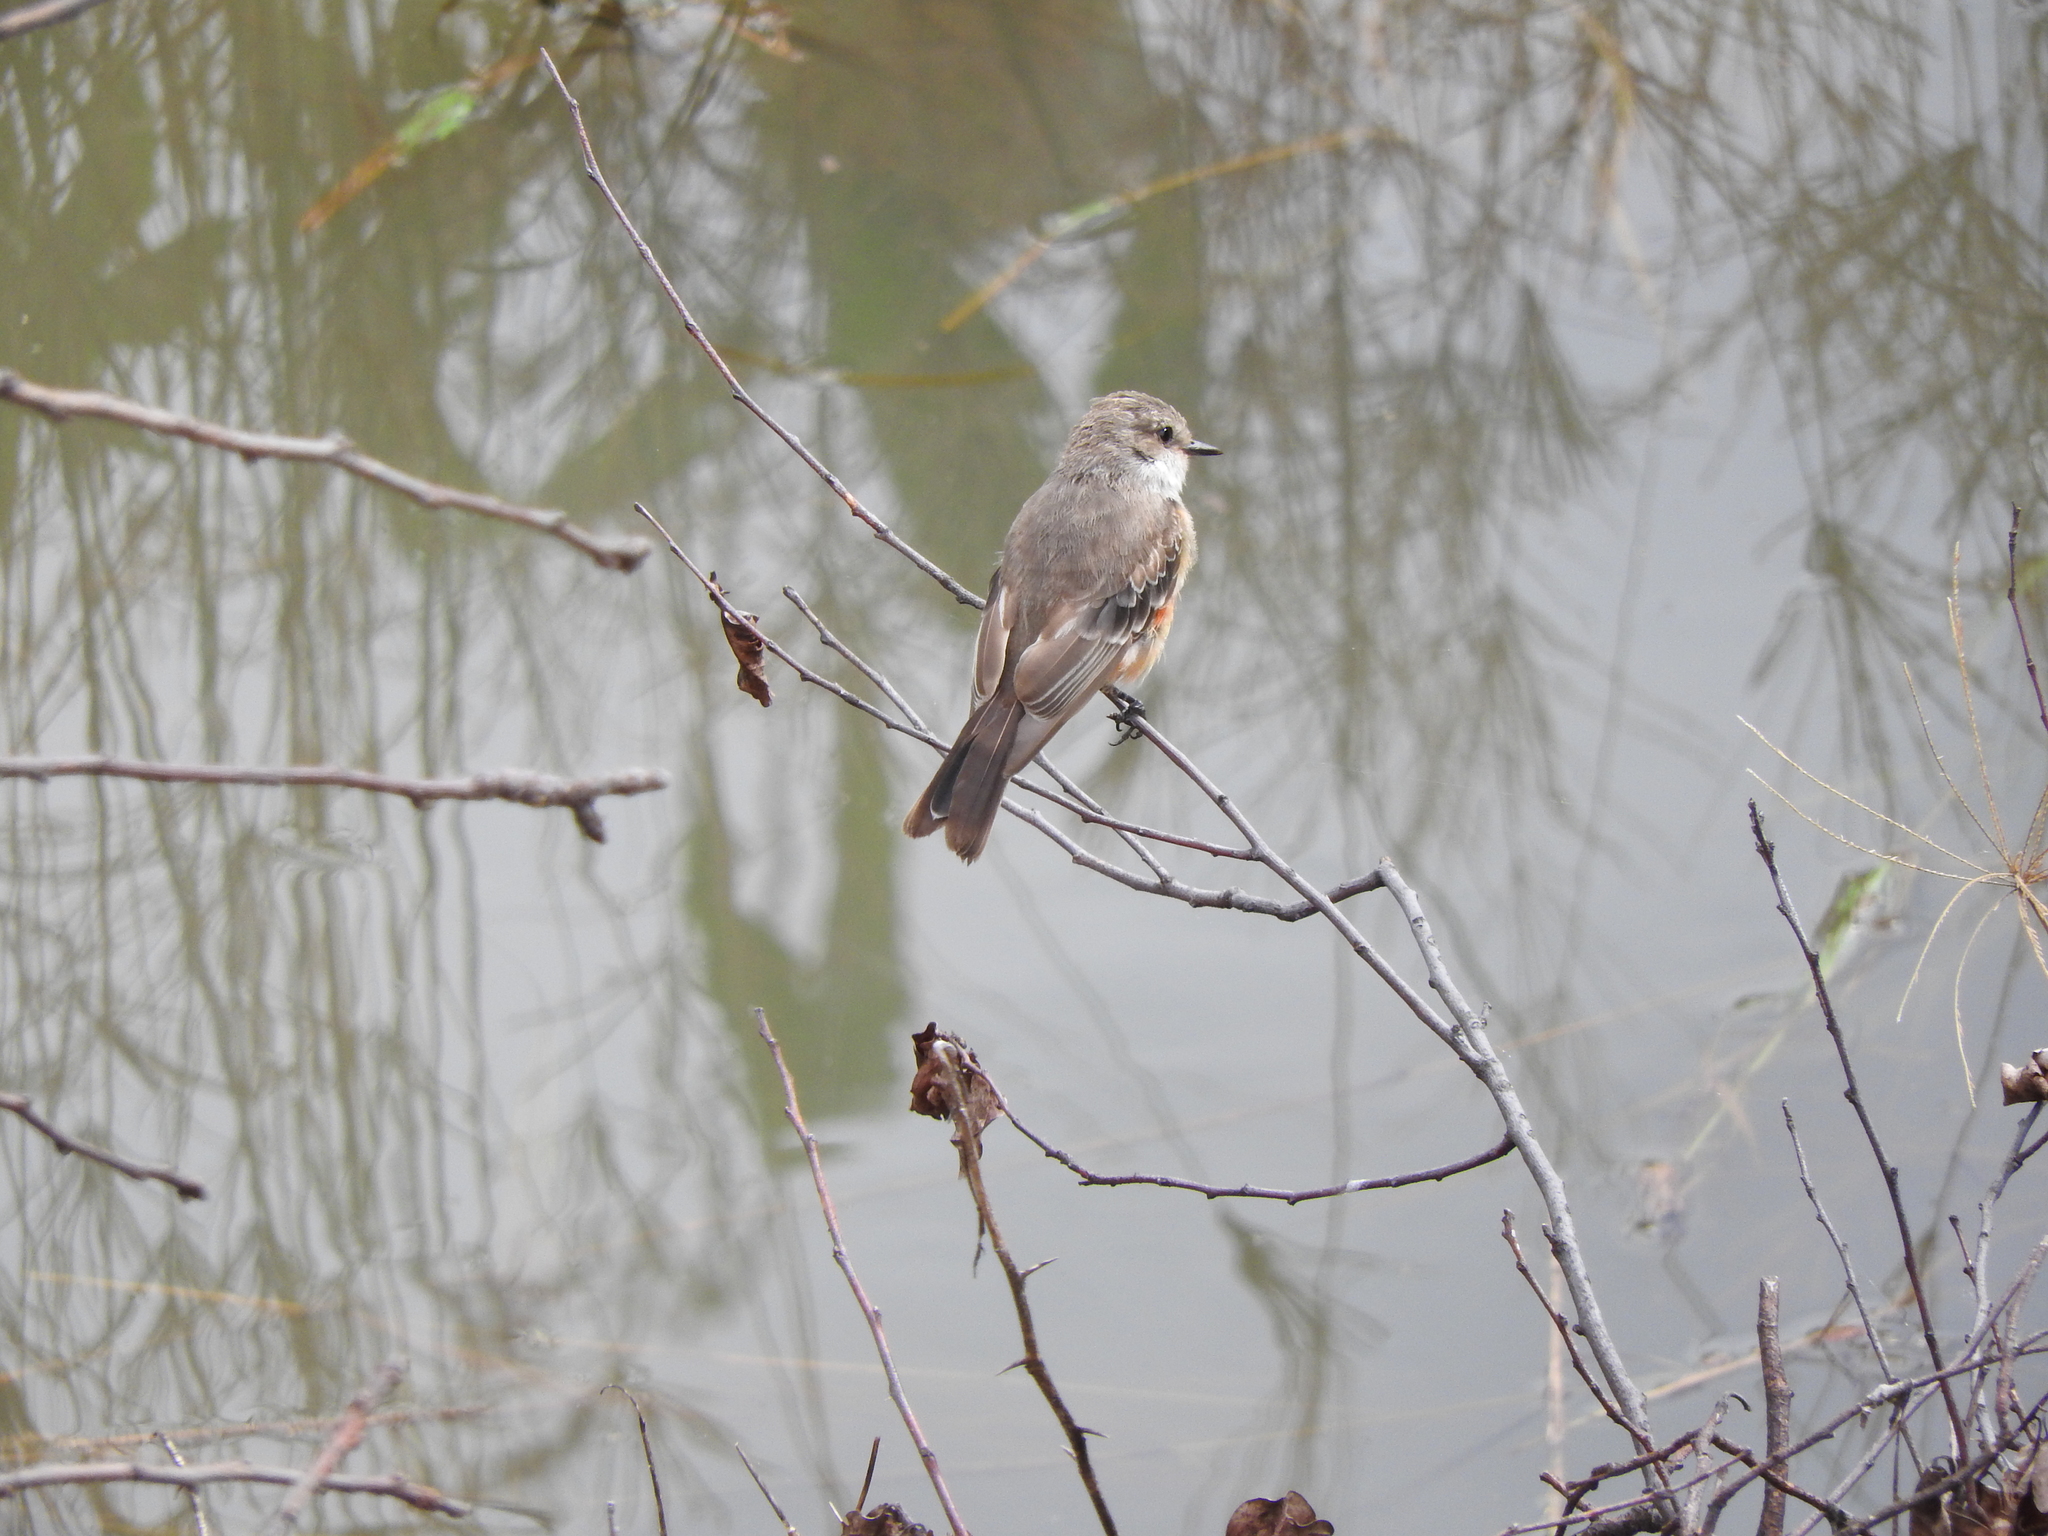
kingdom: Animalia
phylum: Chordata
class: Aves
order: Passeriformes
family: Tyrannidae
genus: Pyrocephalus
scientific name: Pyrocephalus rubinus
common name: Vermilion flycatcher
